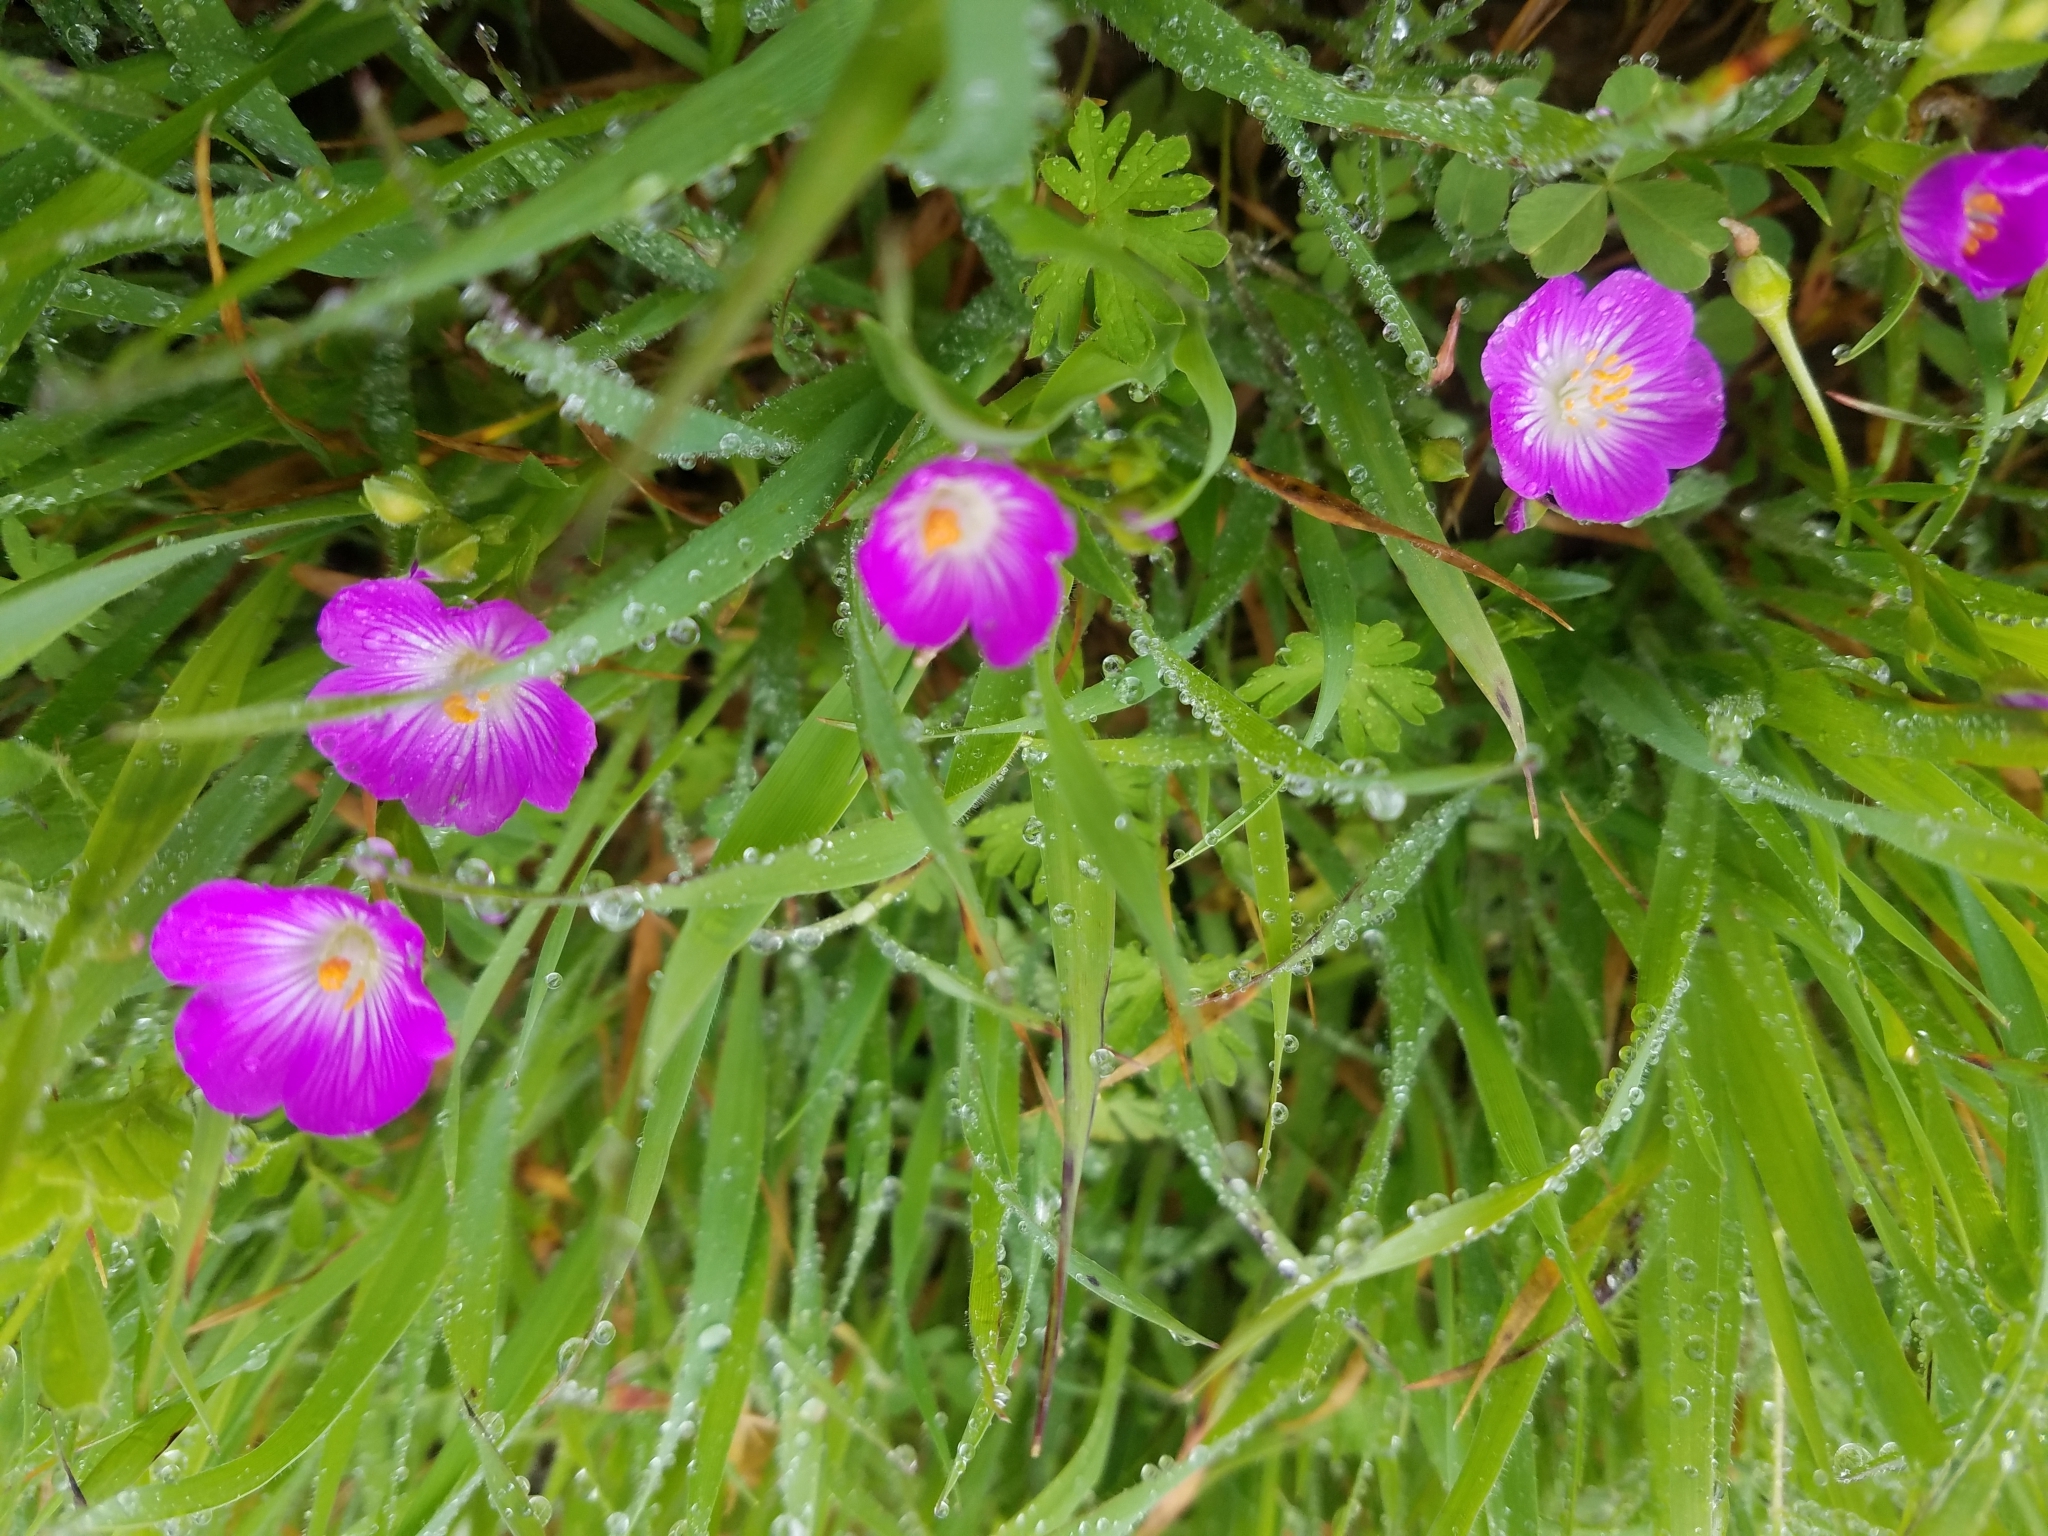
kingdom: Plantae
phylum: Tracheophyta
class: Magnoliopsida
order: Caryophyllales
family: Montiaceae
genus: Calandrinia
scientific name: Calandrinia menziesii
